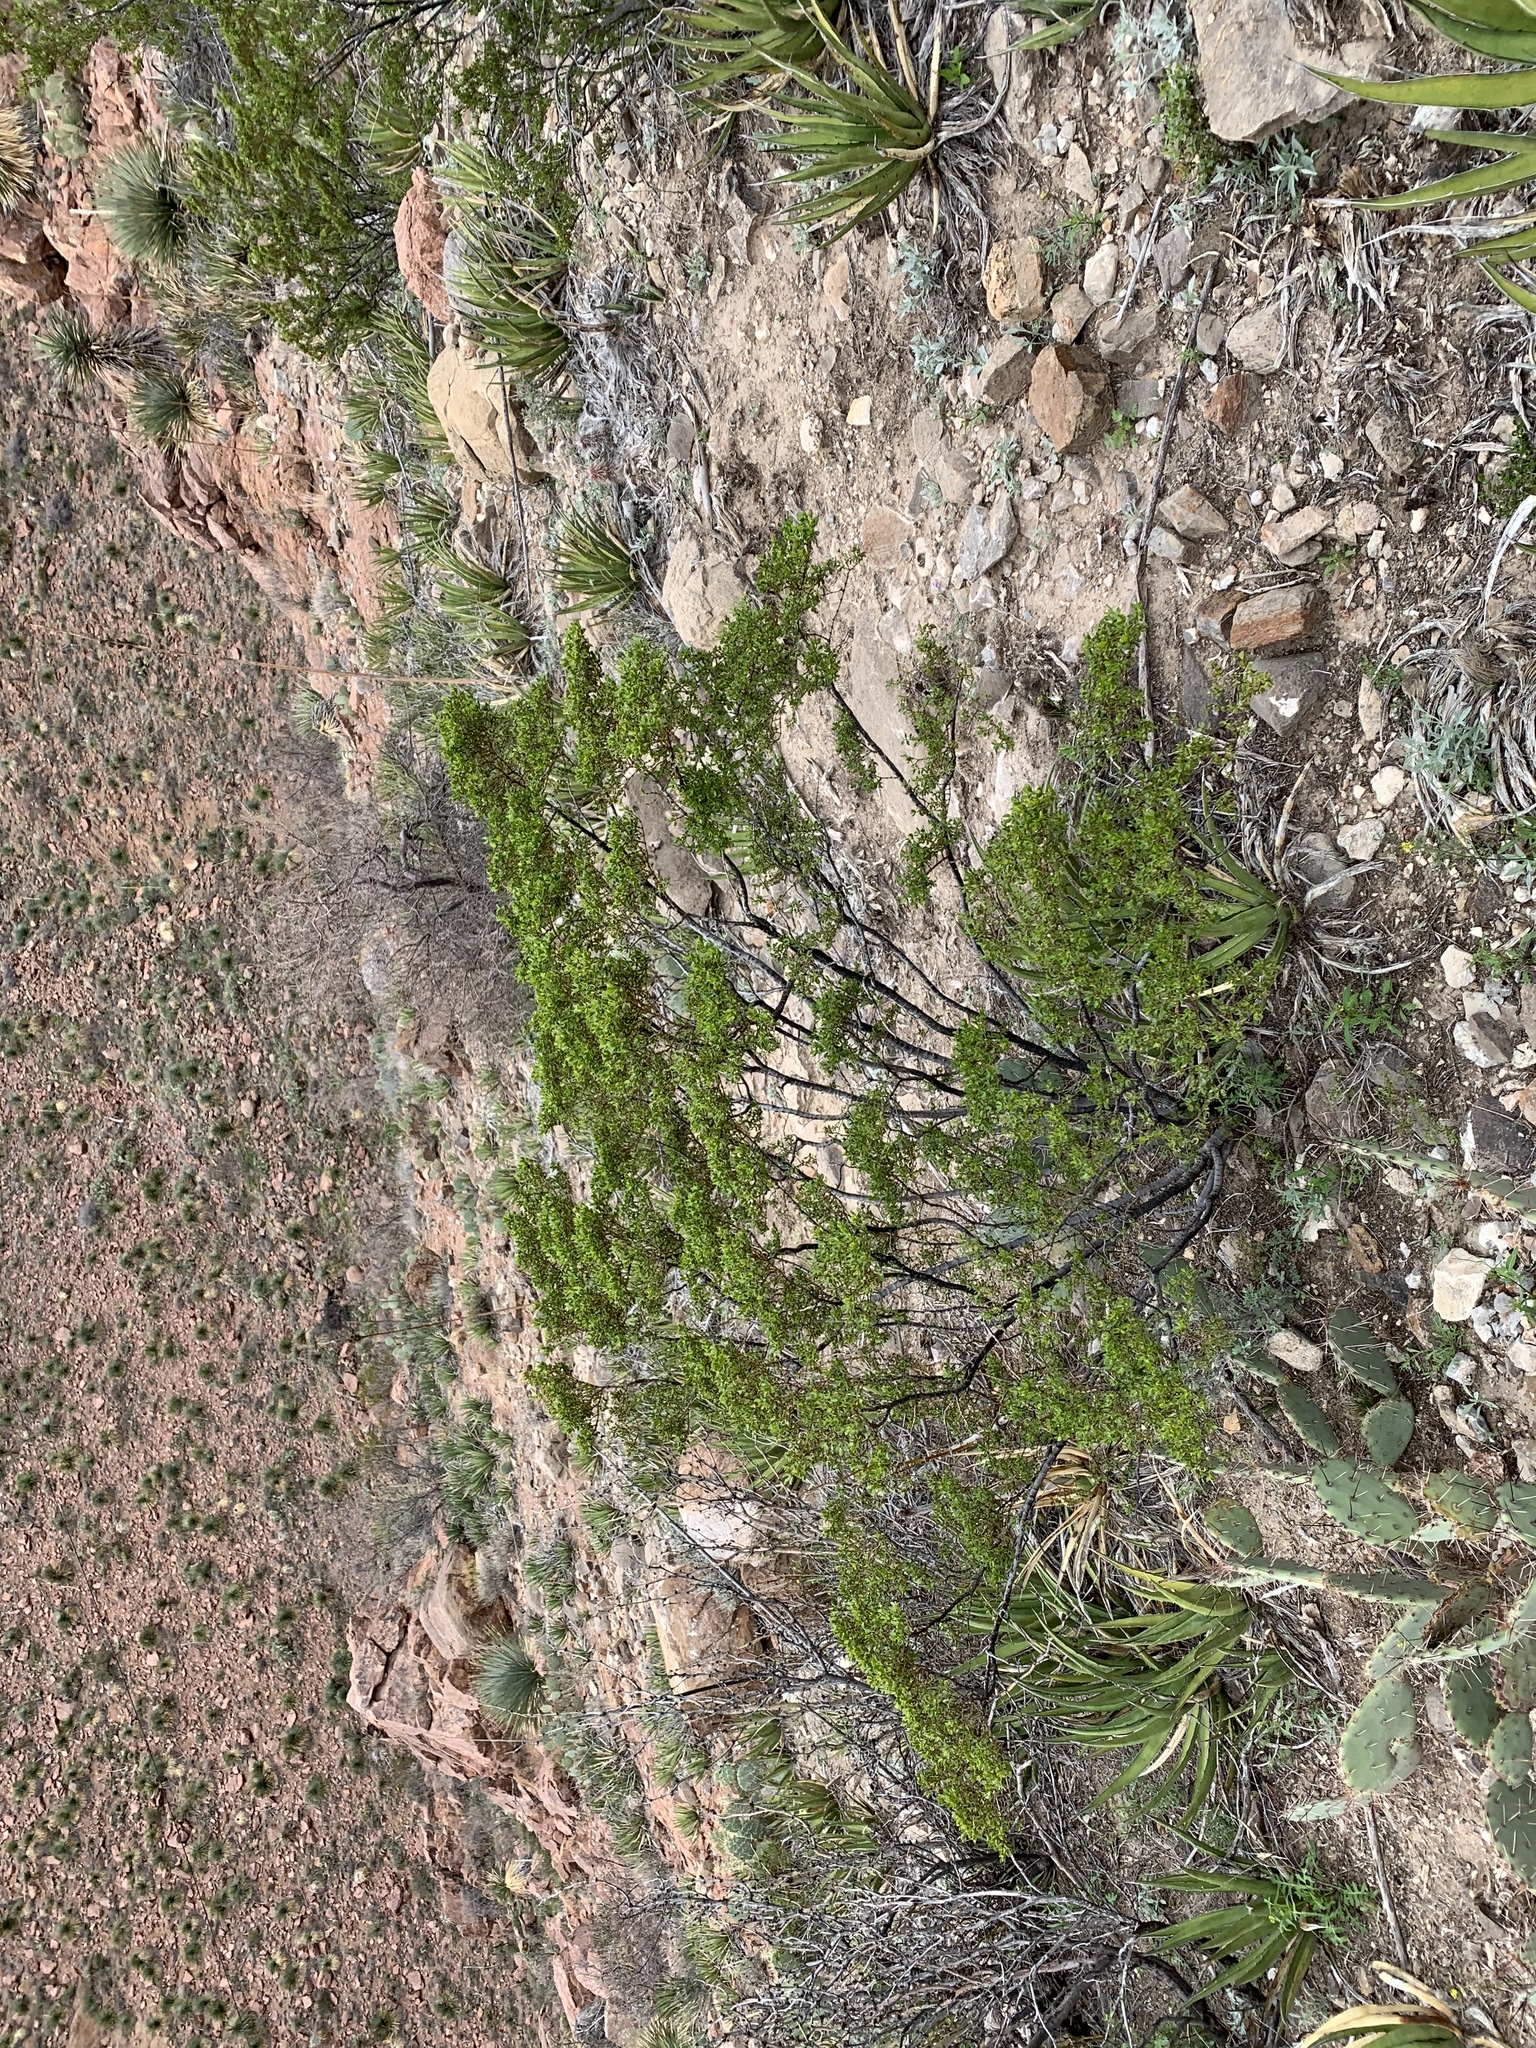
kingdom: Plantae
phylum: Tracheophyta
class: Magnoliopsida
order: Zygophyllales
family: Zygophyllaceae
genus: Larrea
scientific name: Larrea tridentata
